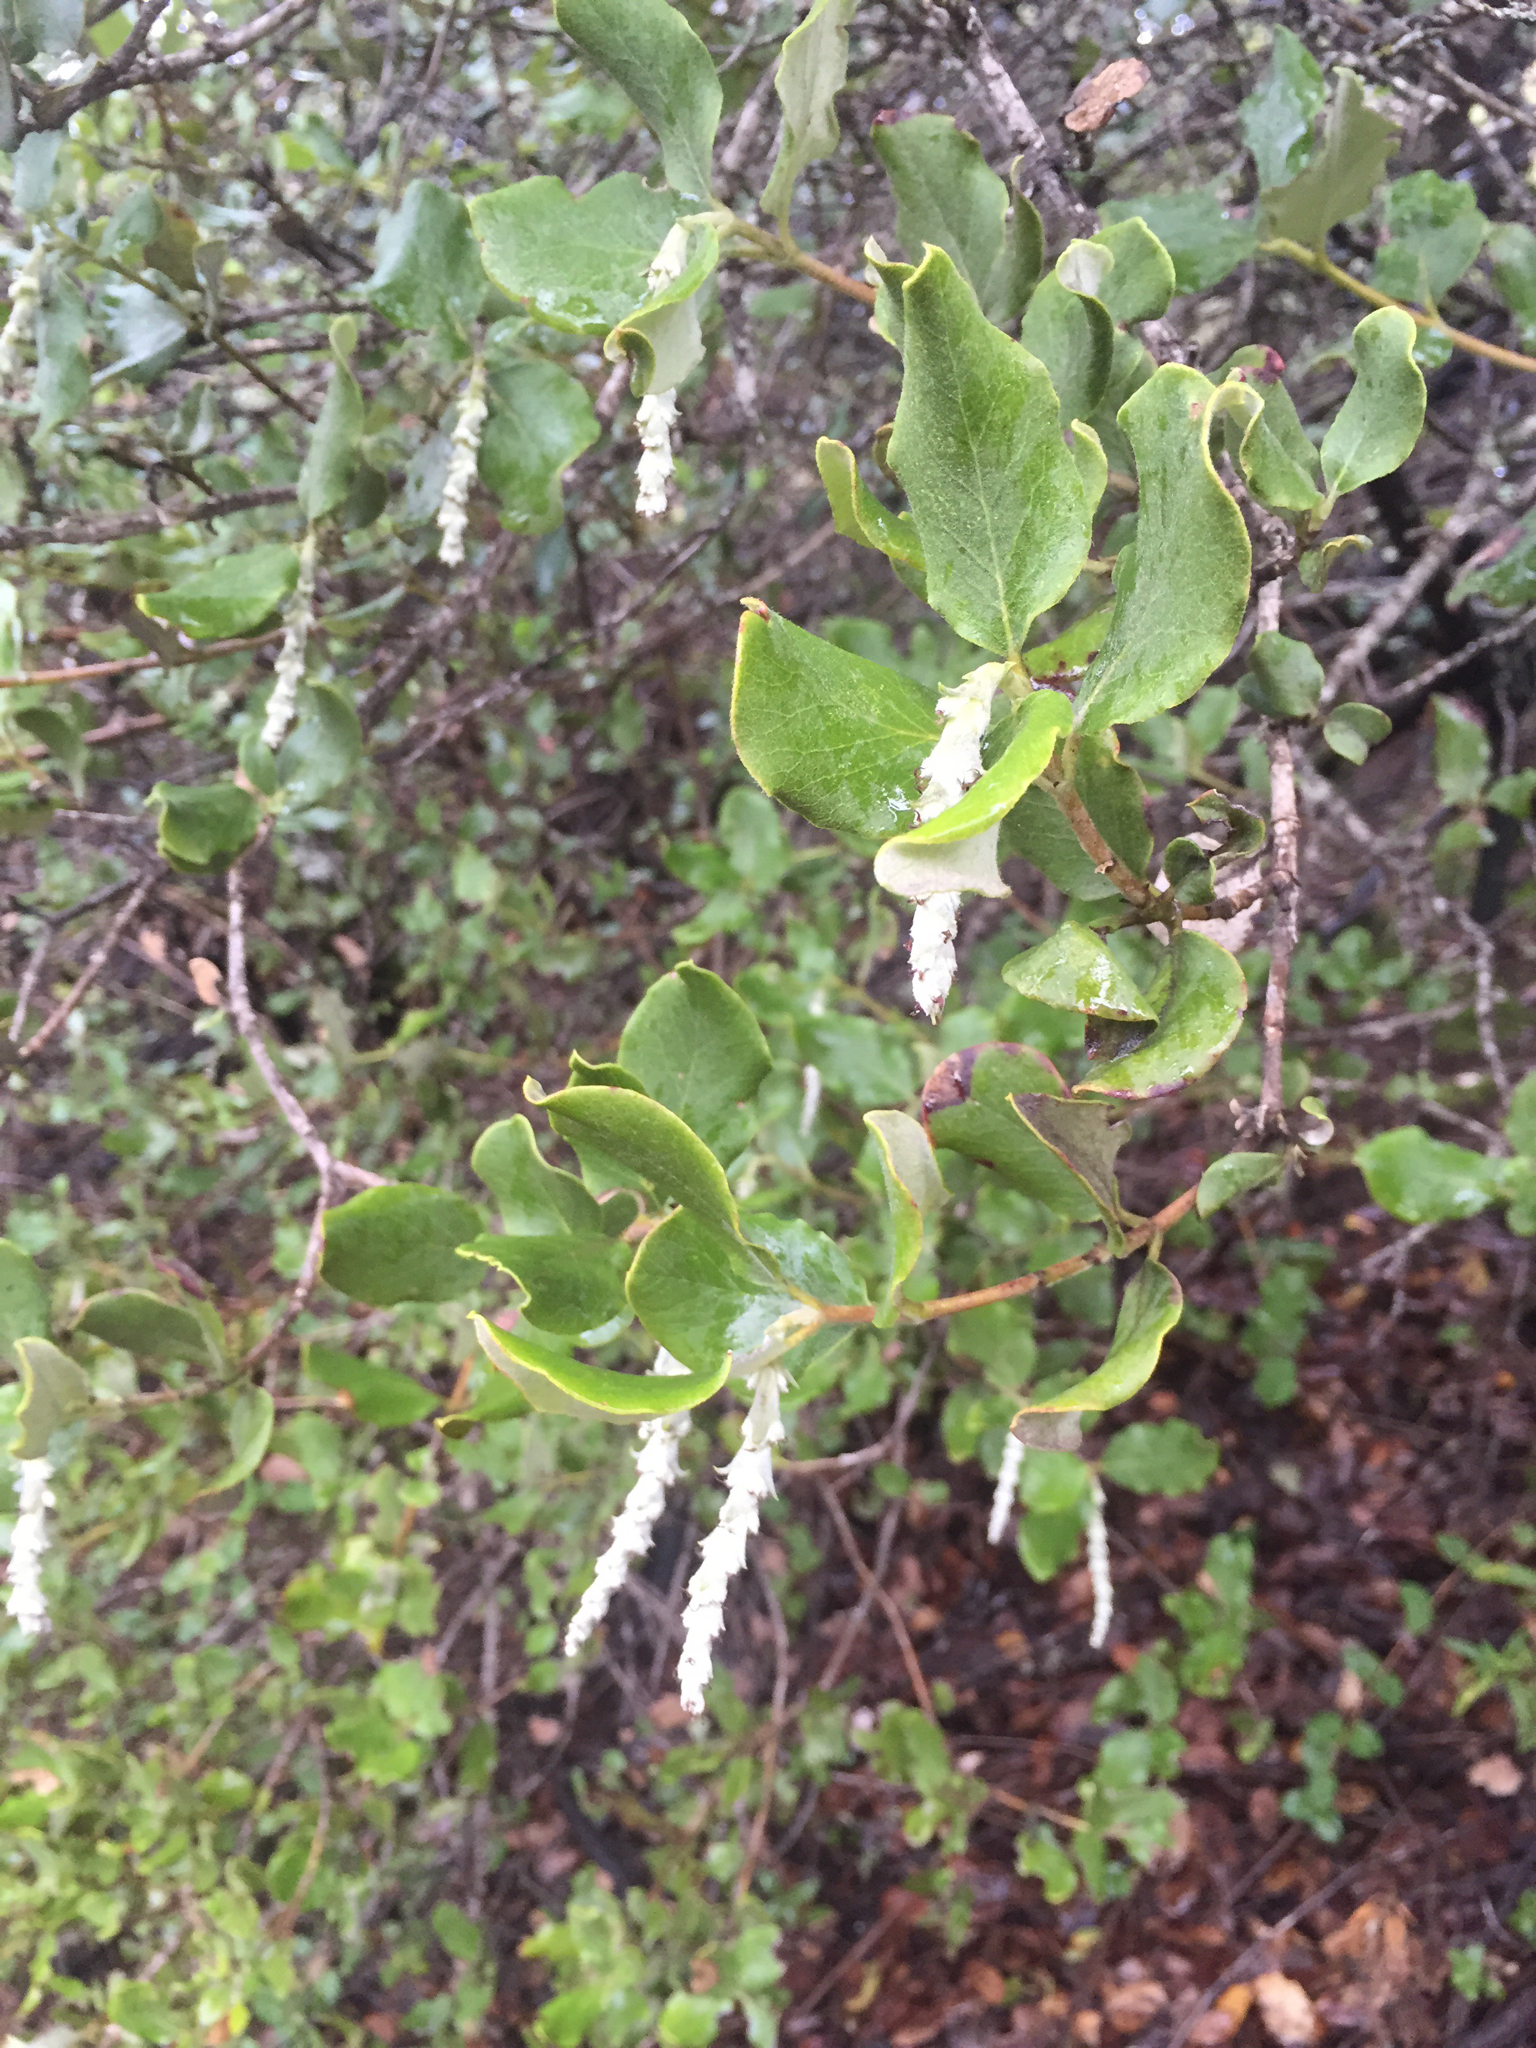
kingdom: Plantae
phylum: Tracheophyta
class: Magnoliopsida
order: Garryales
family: Garryaceae
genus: Garrya
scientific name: Garrya elliptica
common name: Silk-tassel
